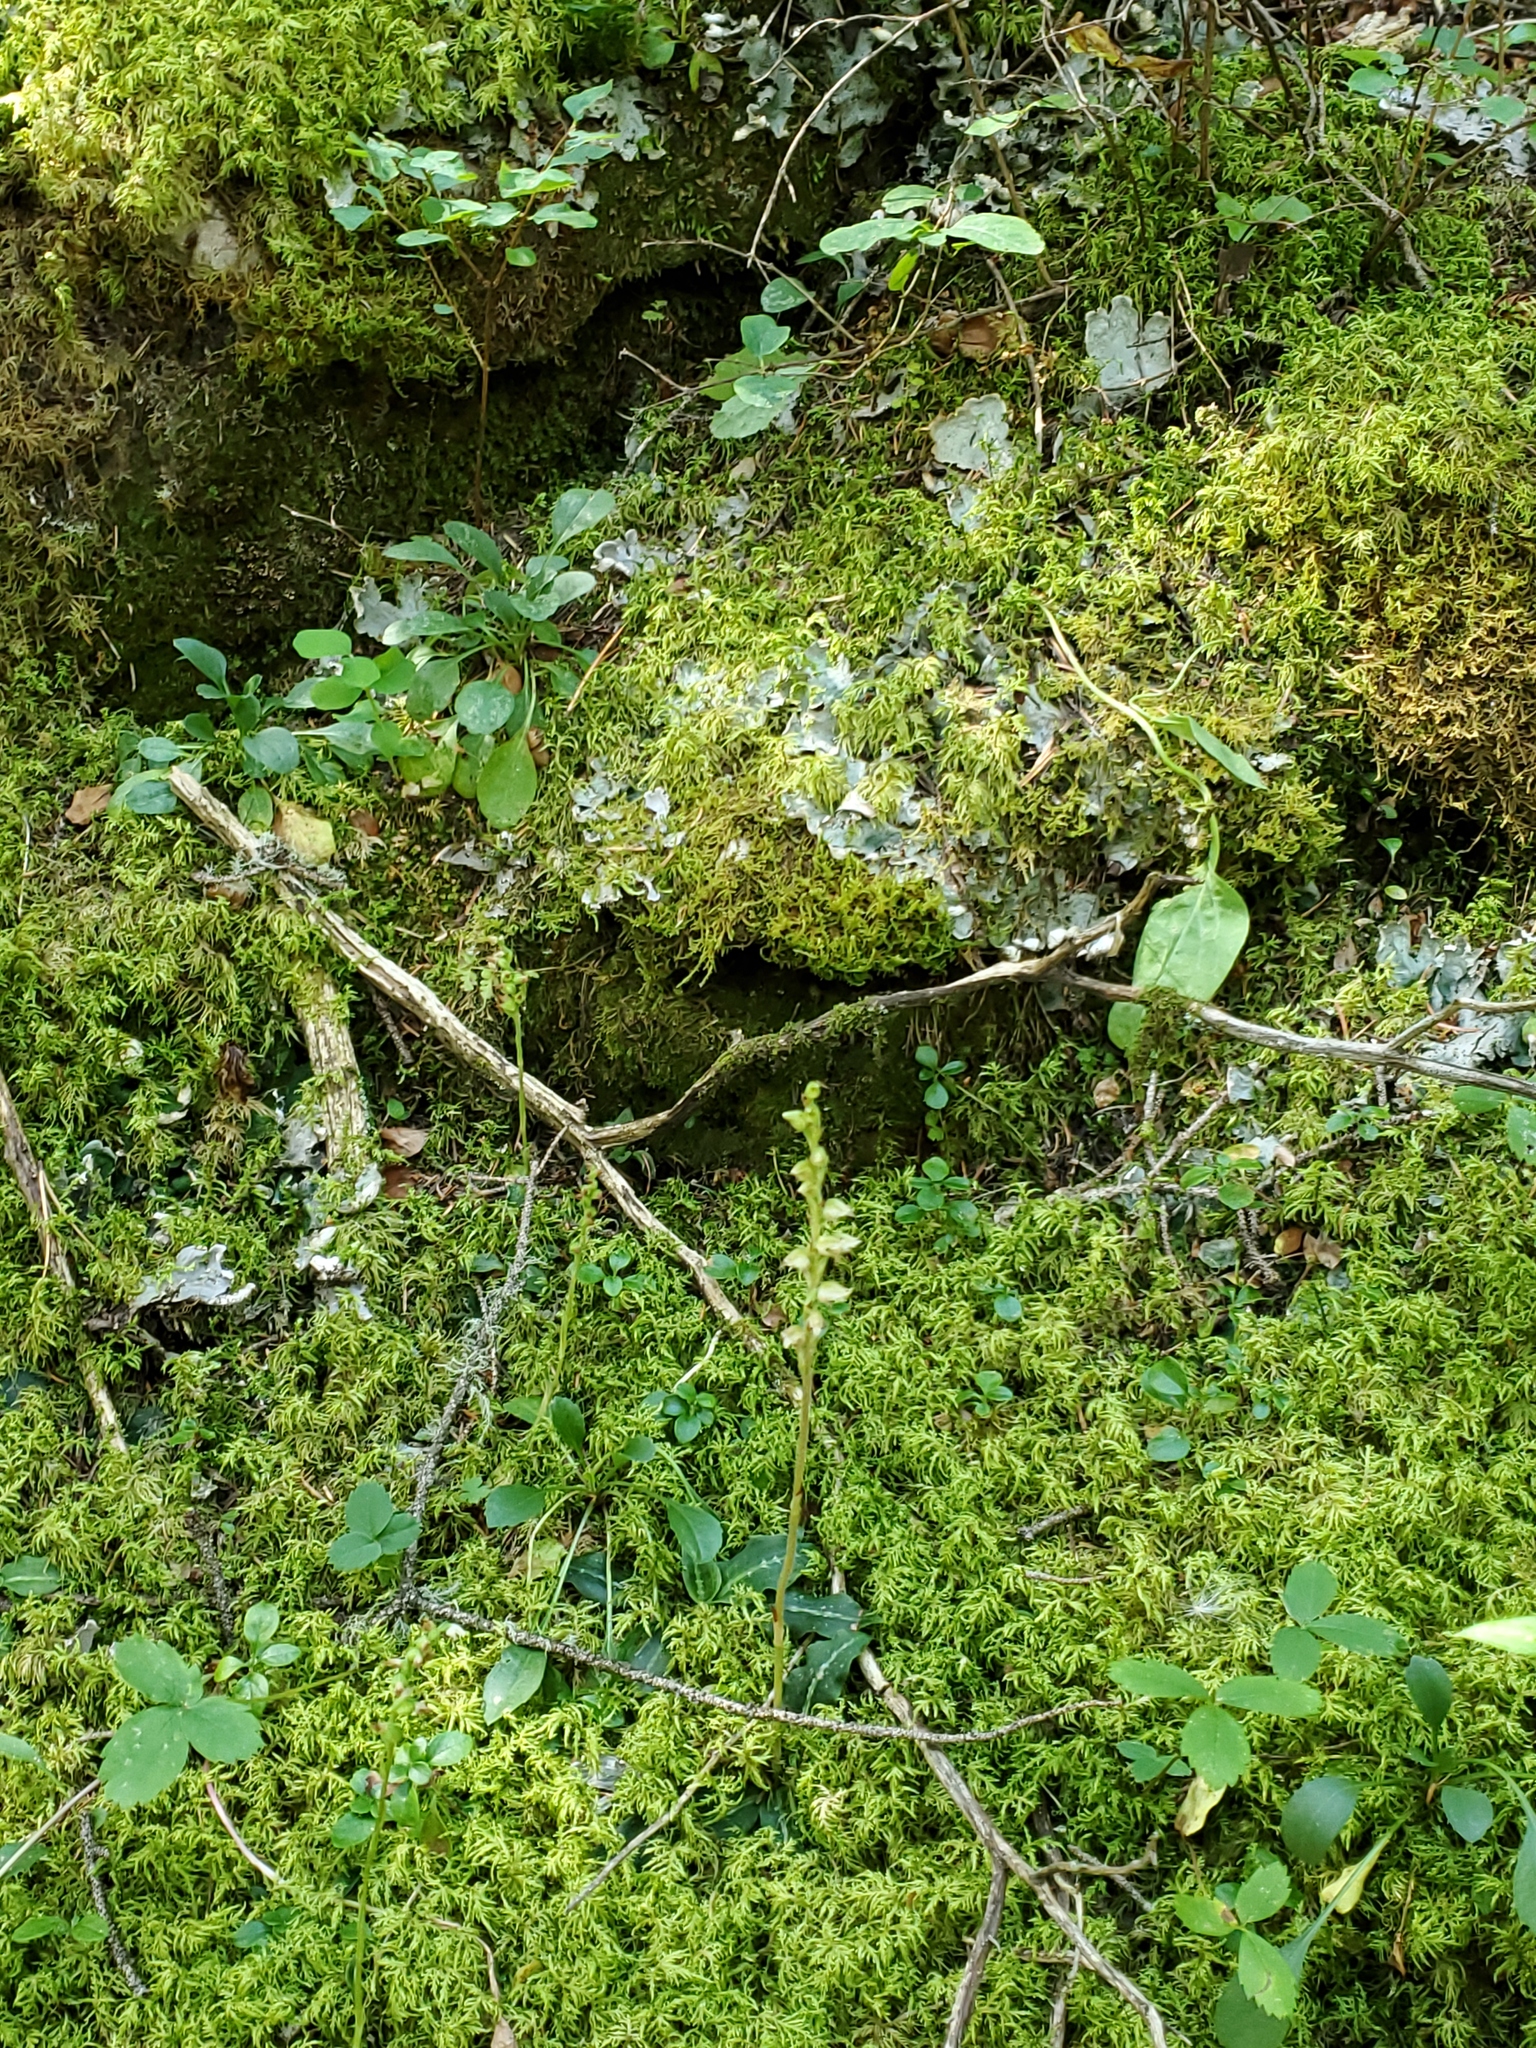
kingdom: Plantae
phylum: Tracheophyta
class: Liliopsida
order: Asparagales
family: Orchidaceae
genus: Goodyera
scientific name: Goodyera oblongifolia
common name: Giant rattlesnake-plantain
